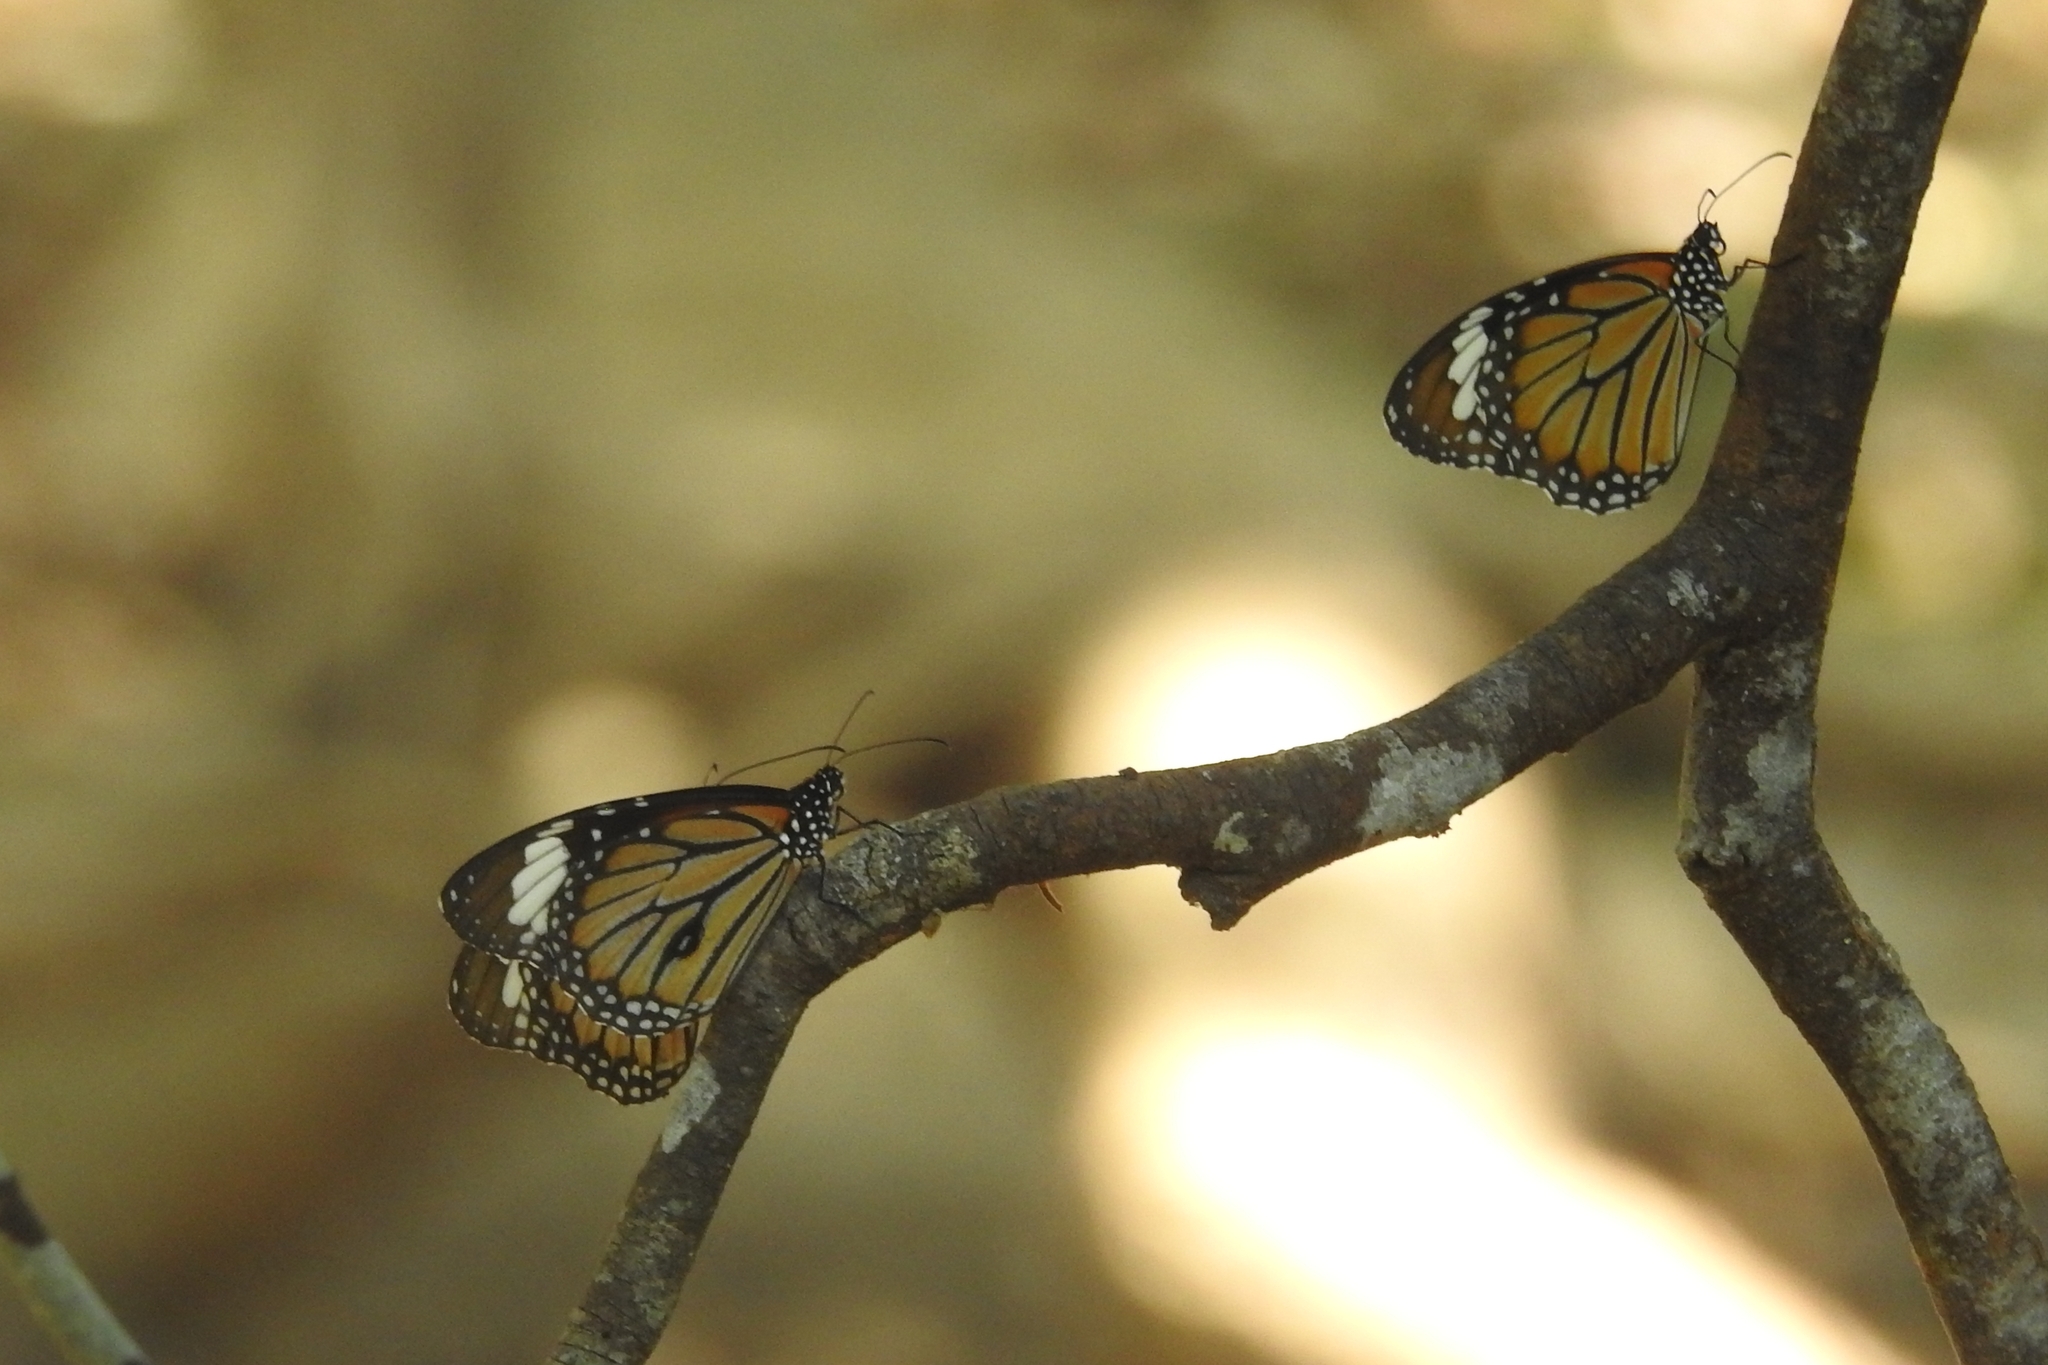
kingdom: Animalia
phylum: Arthropoda
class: Insecta
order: Lepidoptera
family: Nymphalidae
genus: Danaus
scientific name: Danaus genutia
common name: Common tiger butterfly
